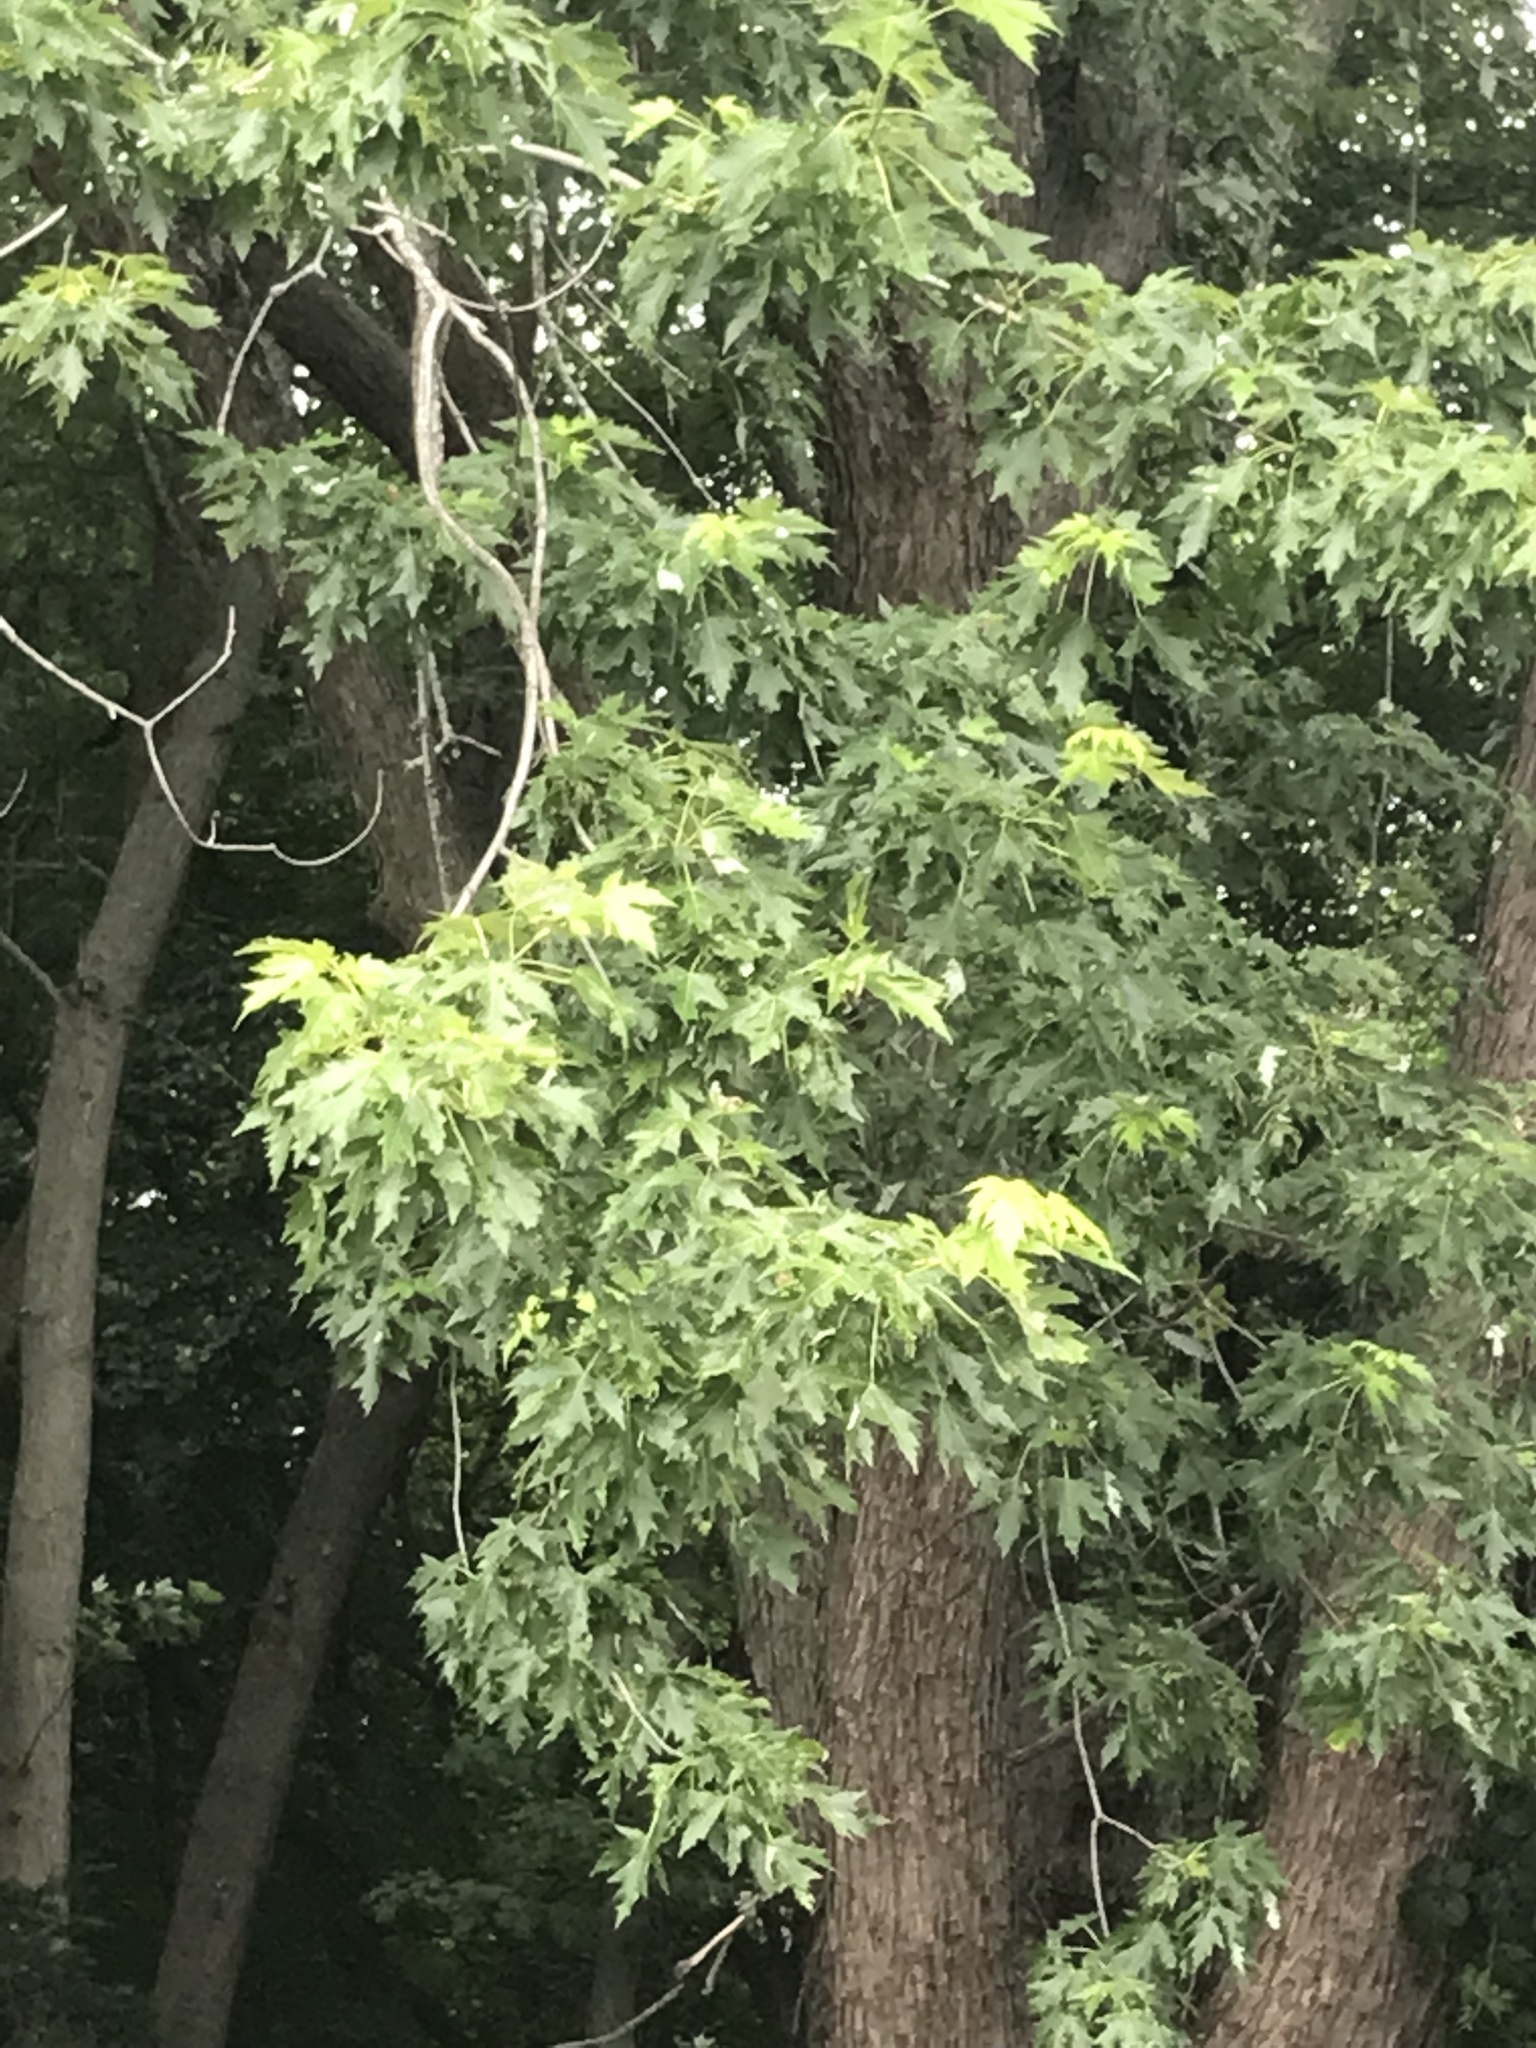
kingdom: Plantae
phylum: Tracheophyta
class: Magnoliopsida
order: Sapindales
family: Sapindaceae
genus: Acer
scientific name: Acer saccharinum
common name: Silver maple
